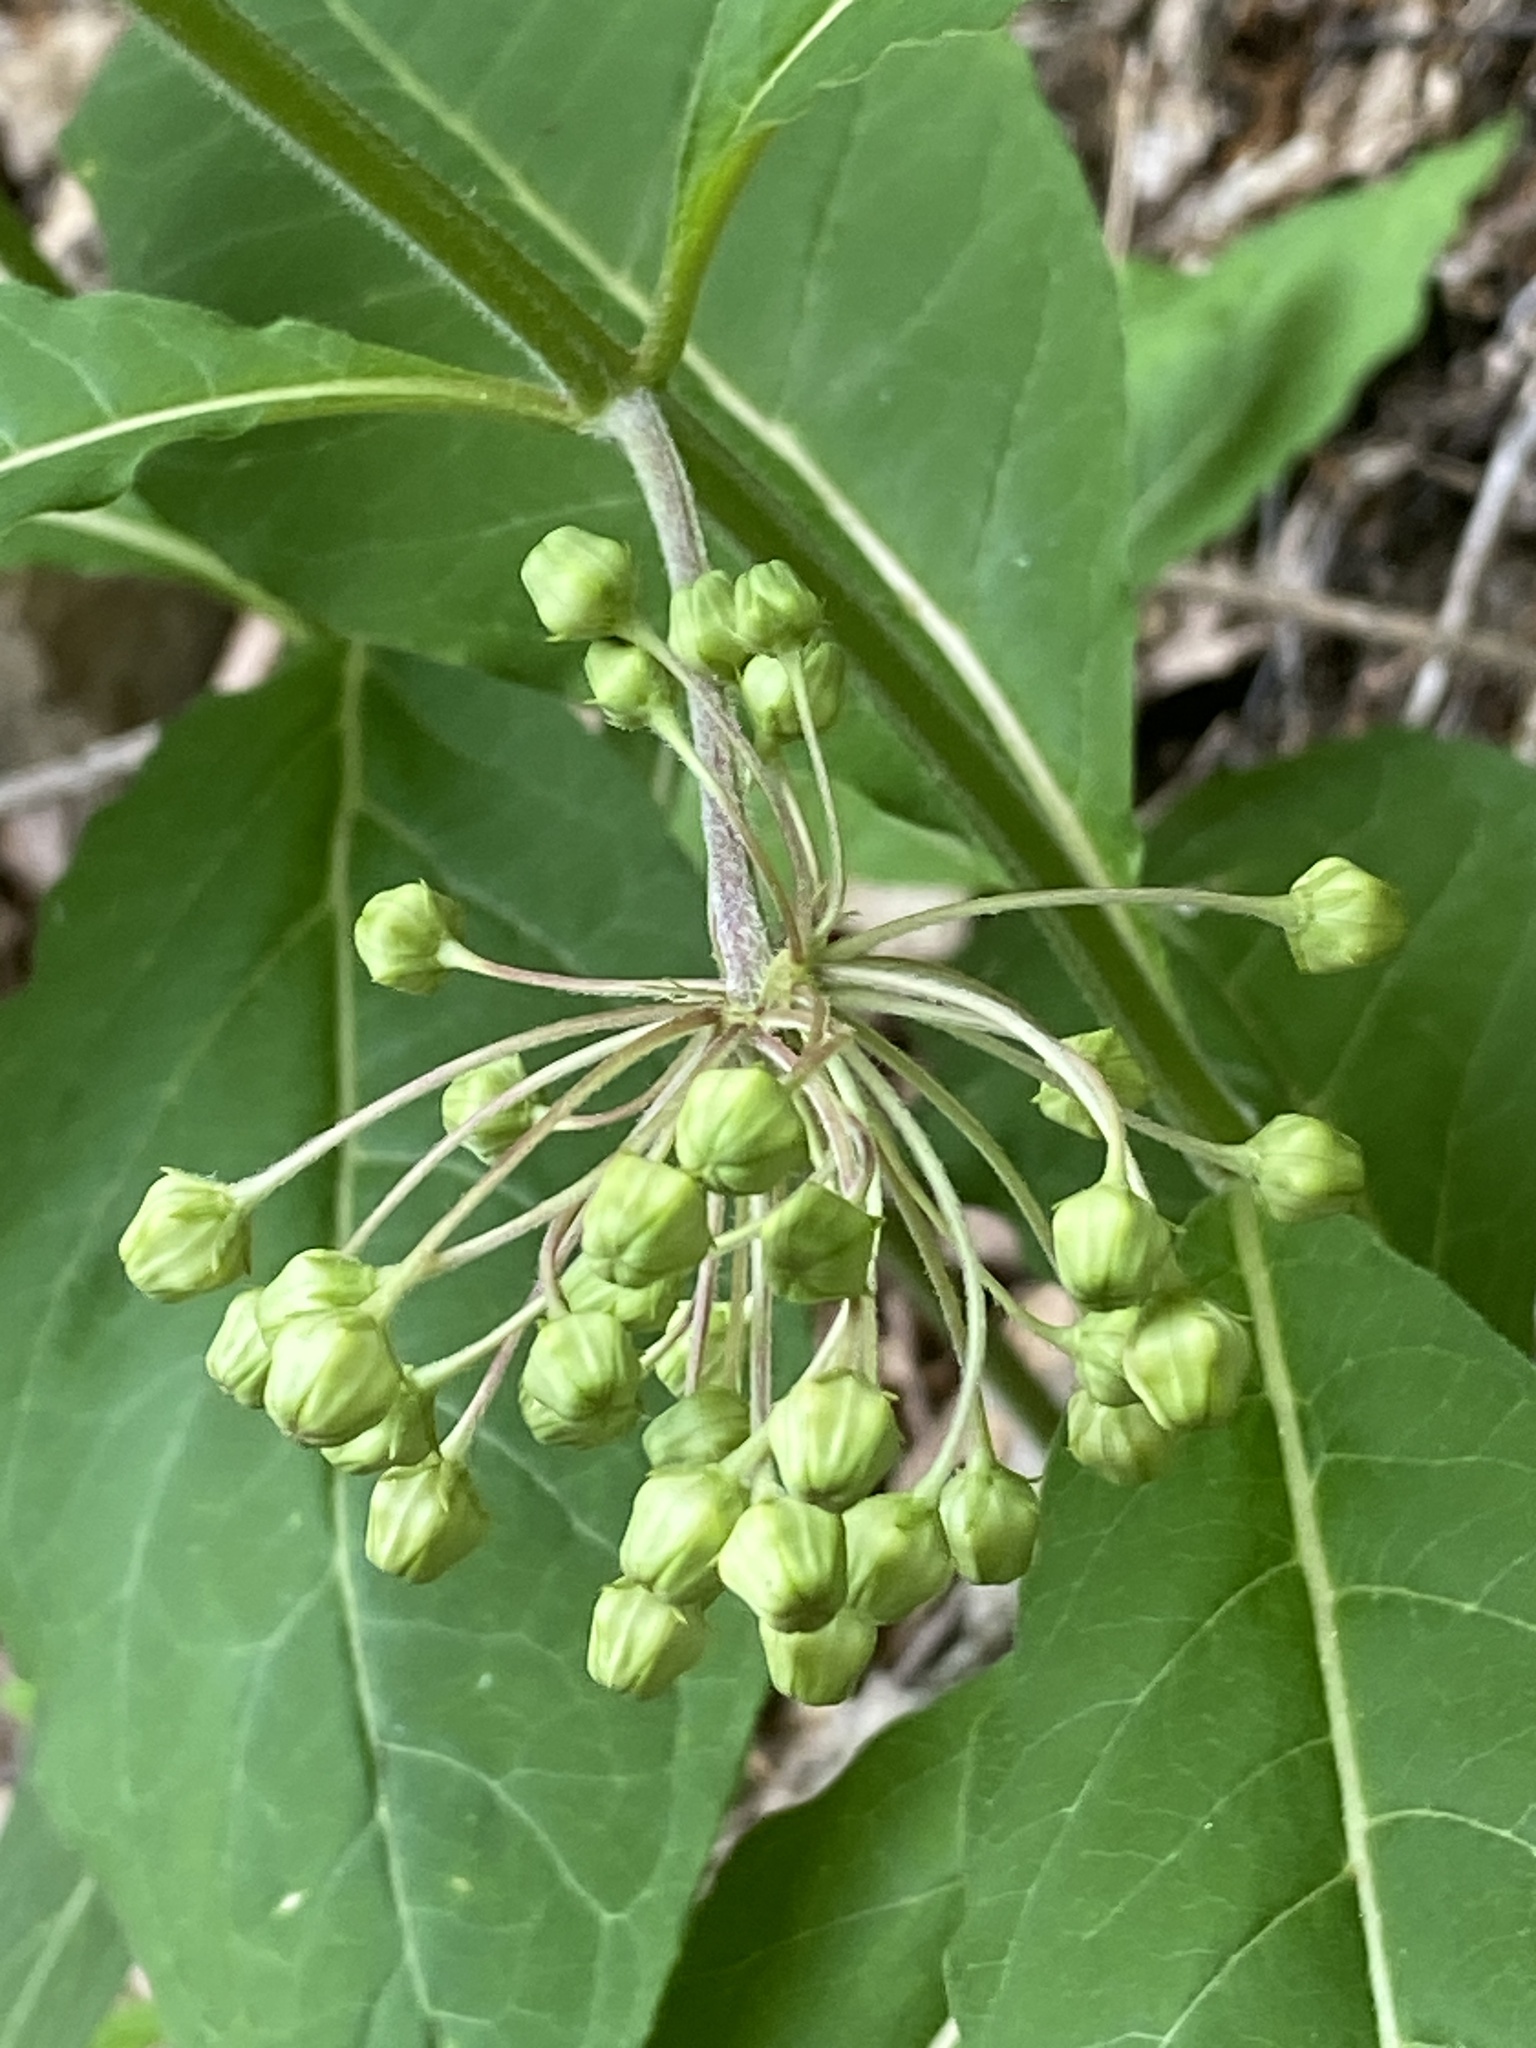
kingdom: Plantae
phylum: Tracheophyta
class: Magnoliopsida
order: Gentianales
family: Apocynaceae
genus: Asclepias
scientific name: Asclepias exaltata
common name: Poke milkweed
